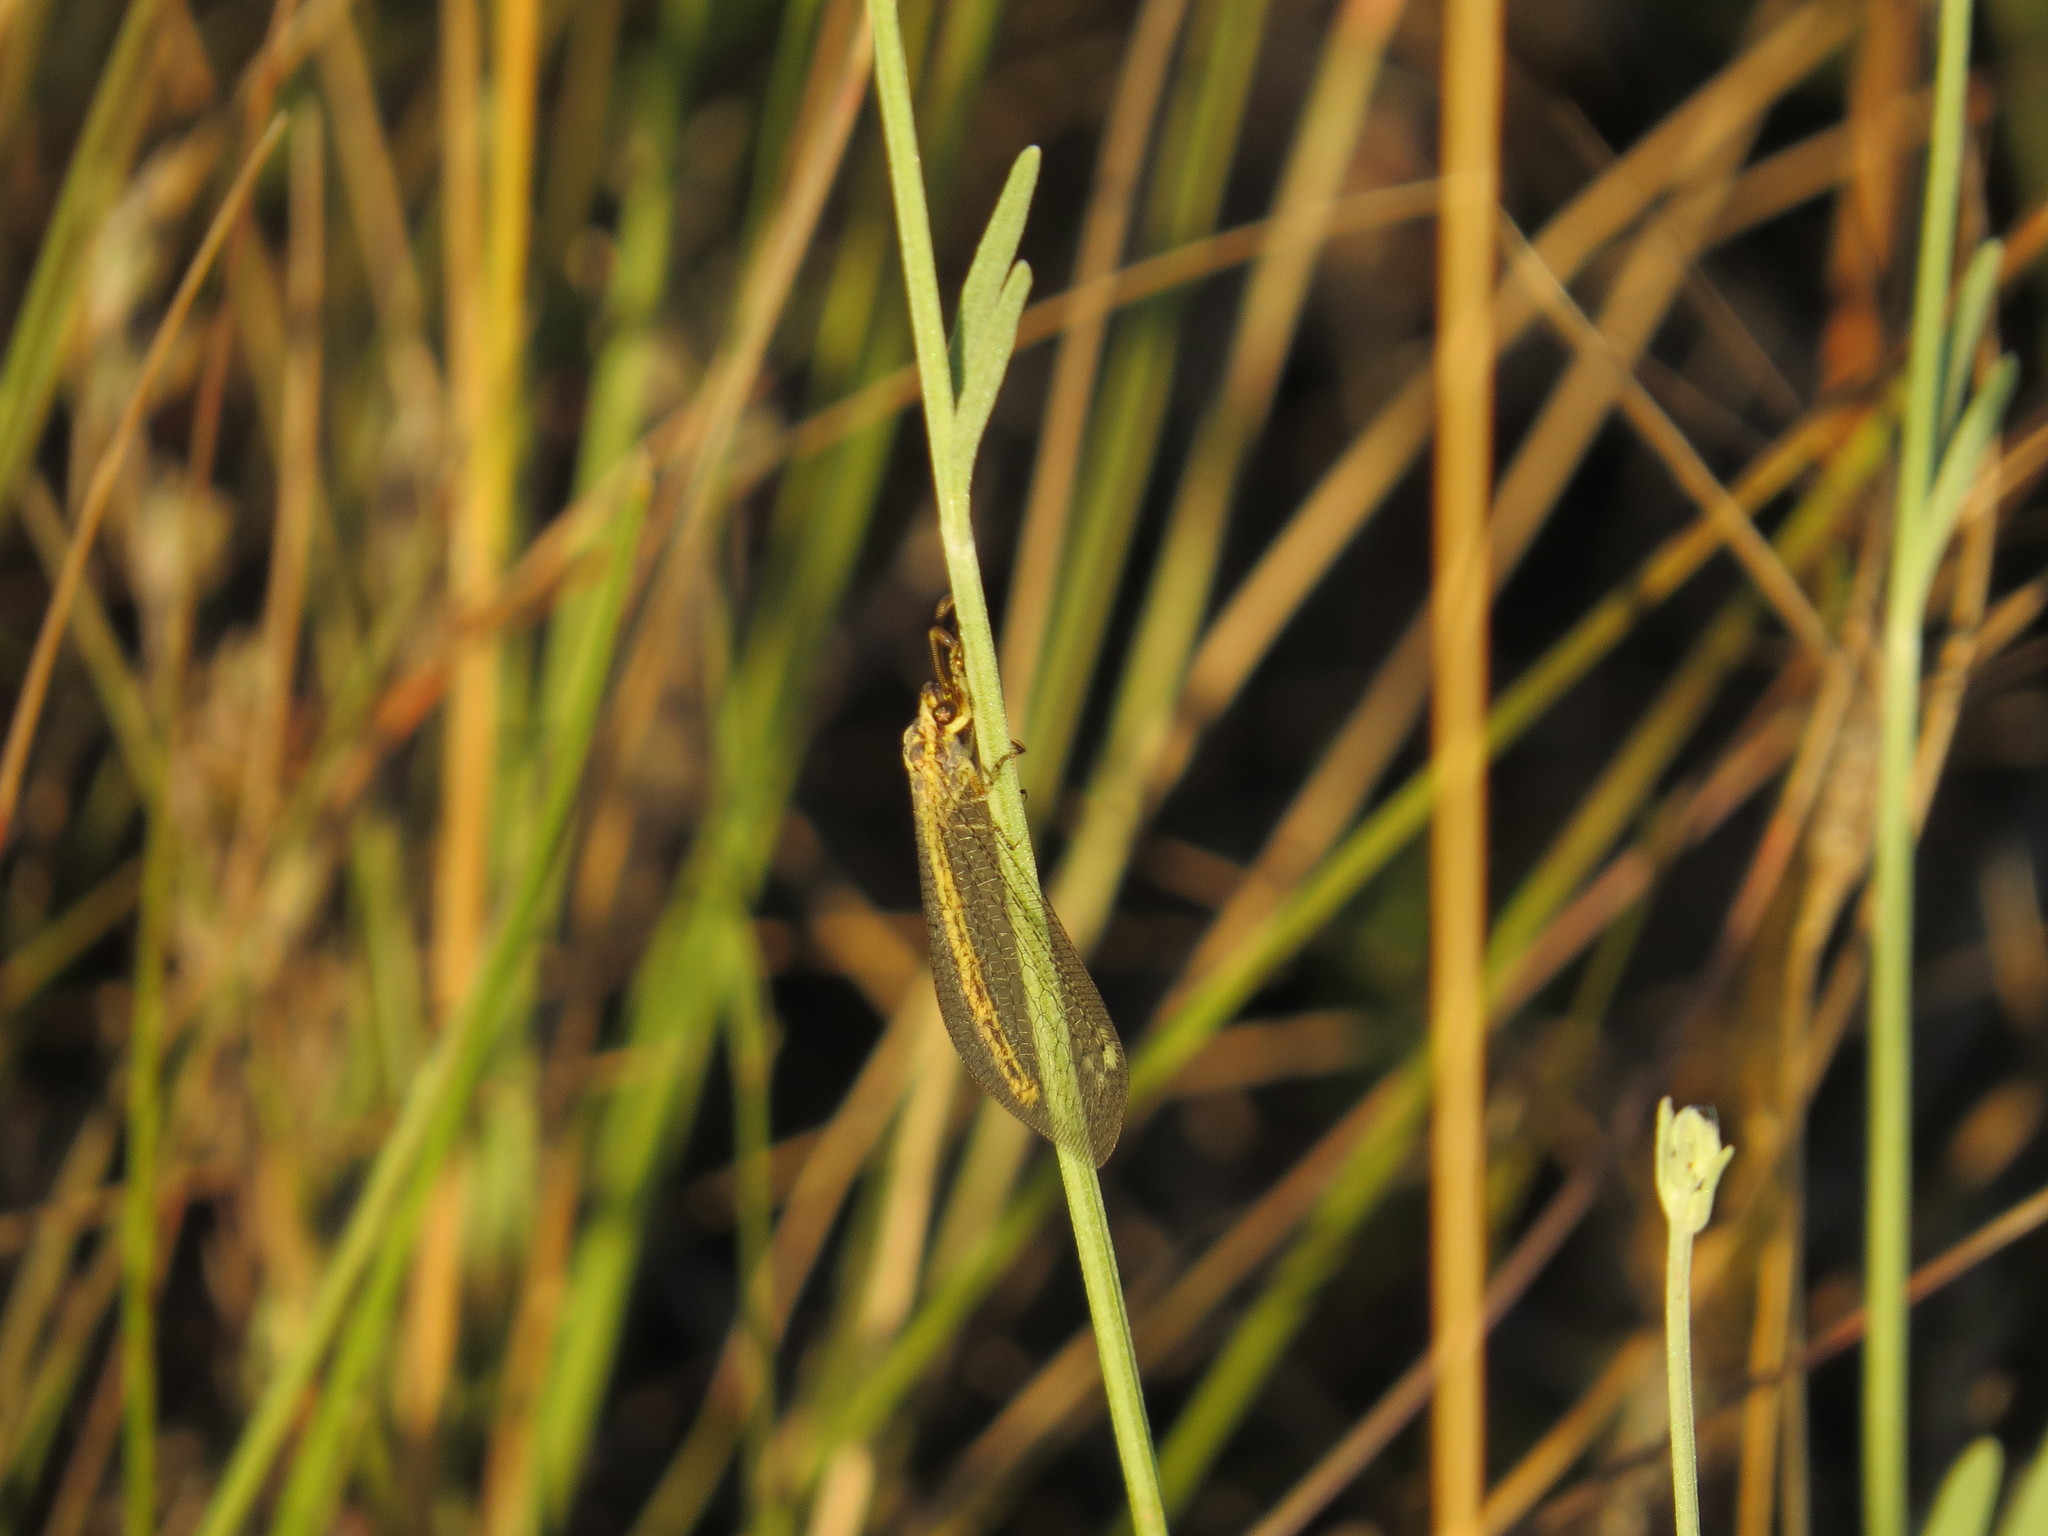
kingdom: Animalia
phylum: Arthropoda
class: Insecta
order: Neuroptera
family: Myrmeleontidae
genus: Macronemurus
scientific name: Macronemurus appendiculatus
